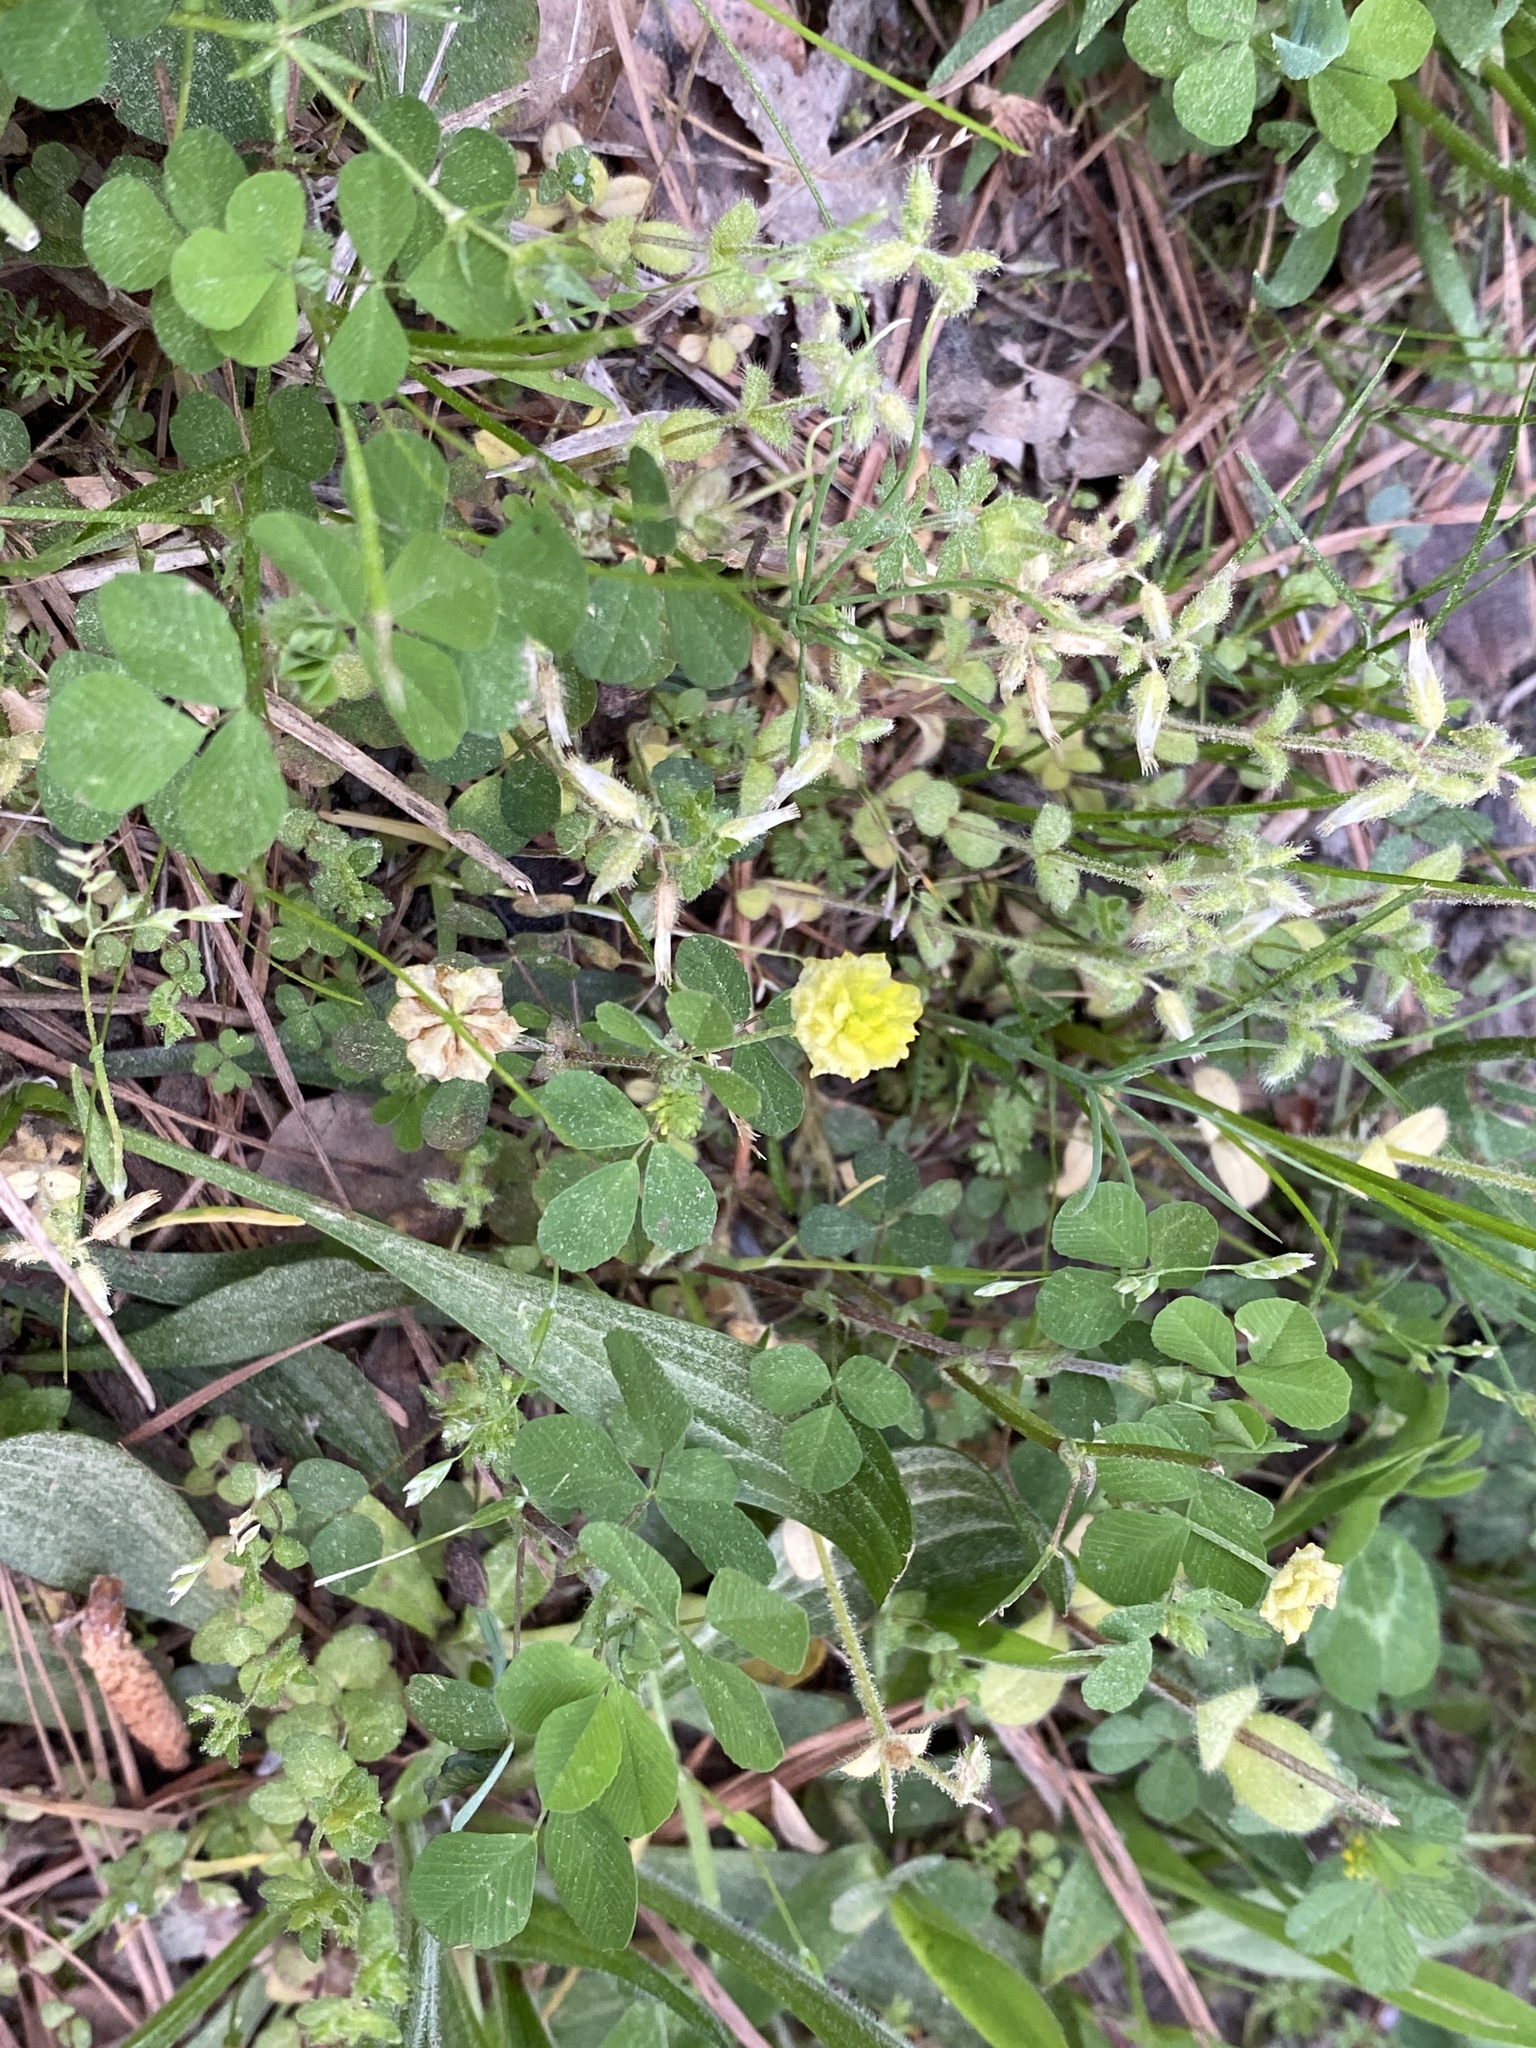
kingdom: Plantae
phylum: Tracheophyta
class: Magnoliopsida
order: Fabales
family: Fabaceae
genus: Trifolium
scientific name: Trifolium campestre
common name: Field clover
